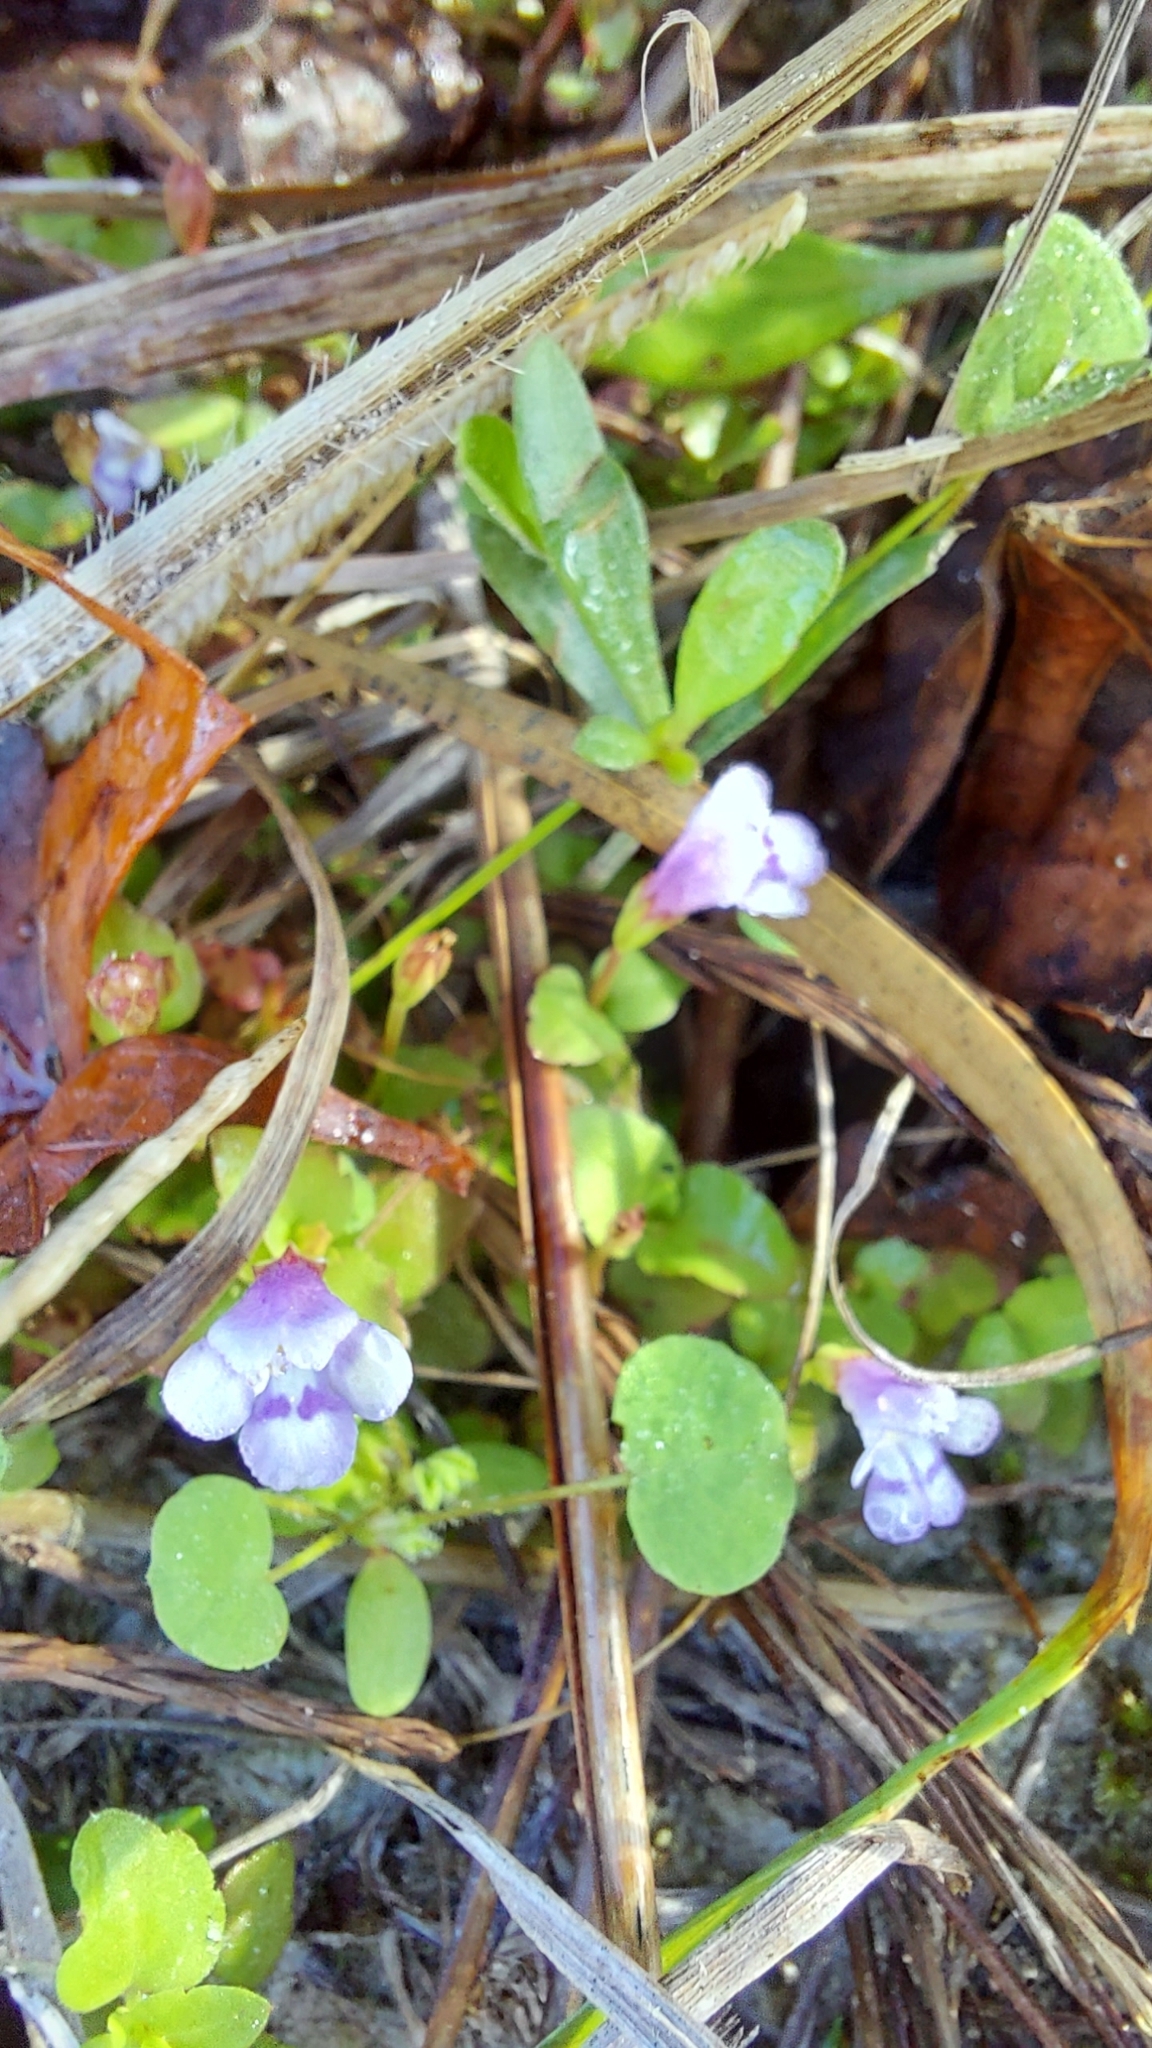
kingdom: Plantae
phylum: Tracheophyta
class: Magnoliopsida
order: Lamiales
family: Linderniaceae
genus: Torenia
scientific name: Torenia crustacea
